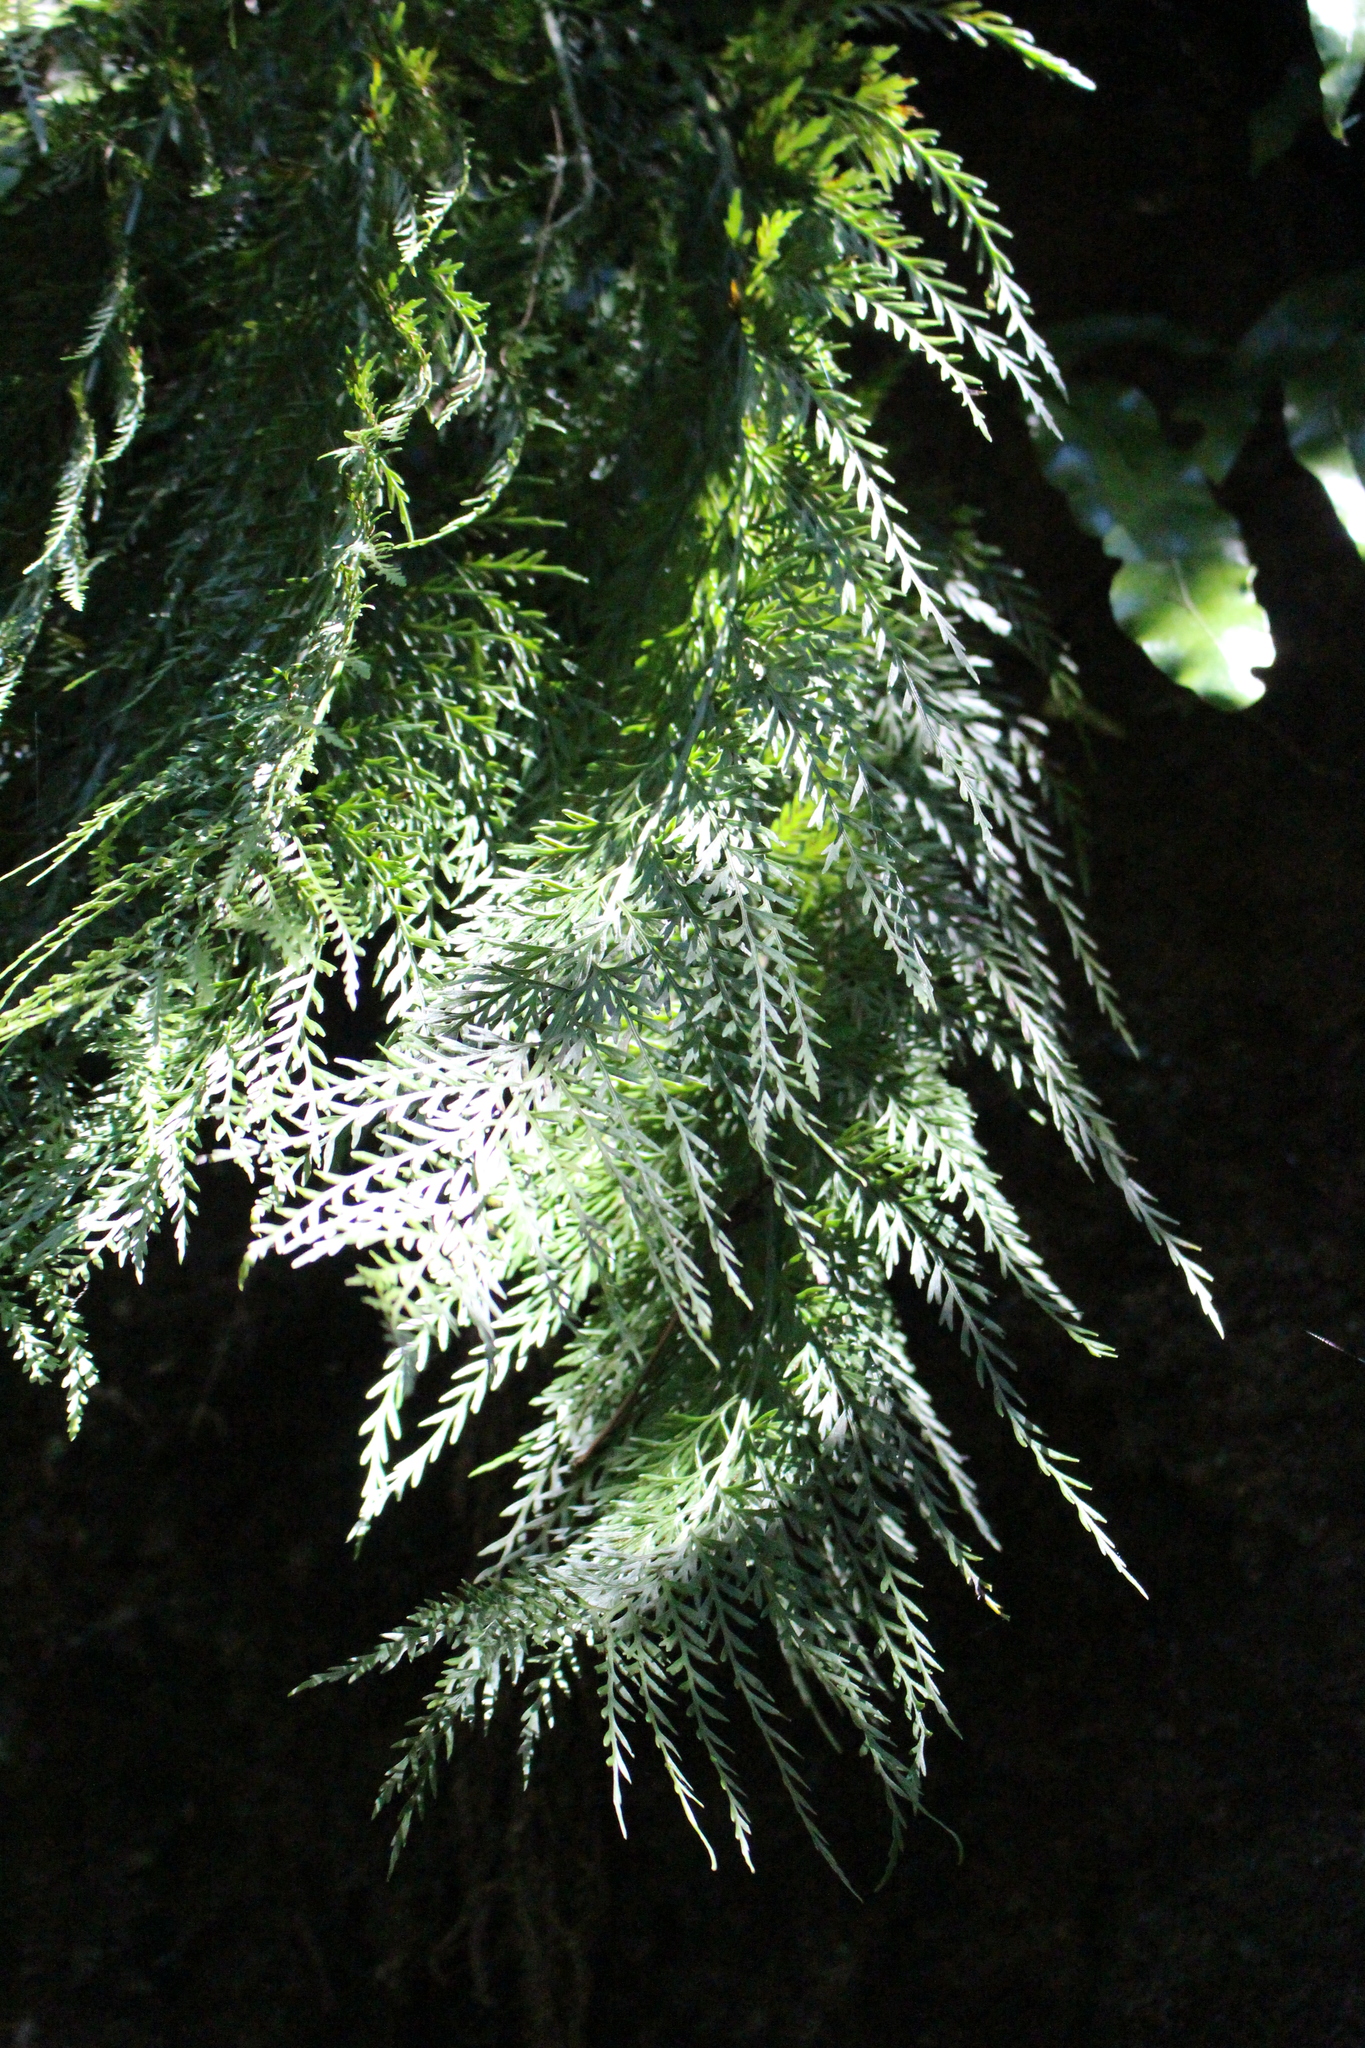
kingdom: Plantae
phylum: Tracheophyta
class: Polypodiopsida
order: Polypodiales
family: Aspleniaceae
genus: Asplenium
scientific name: Asplenium appendiculatum
